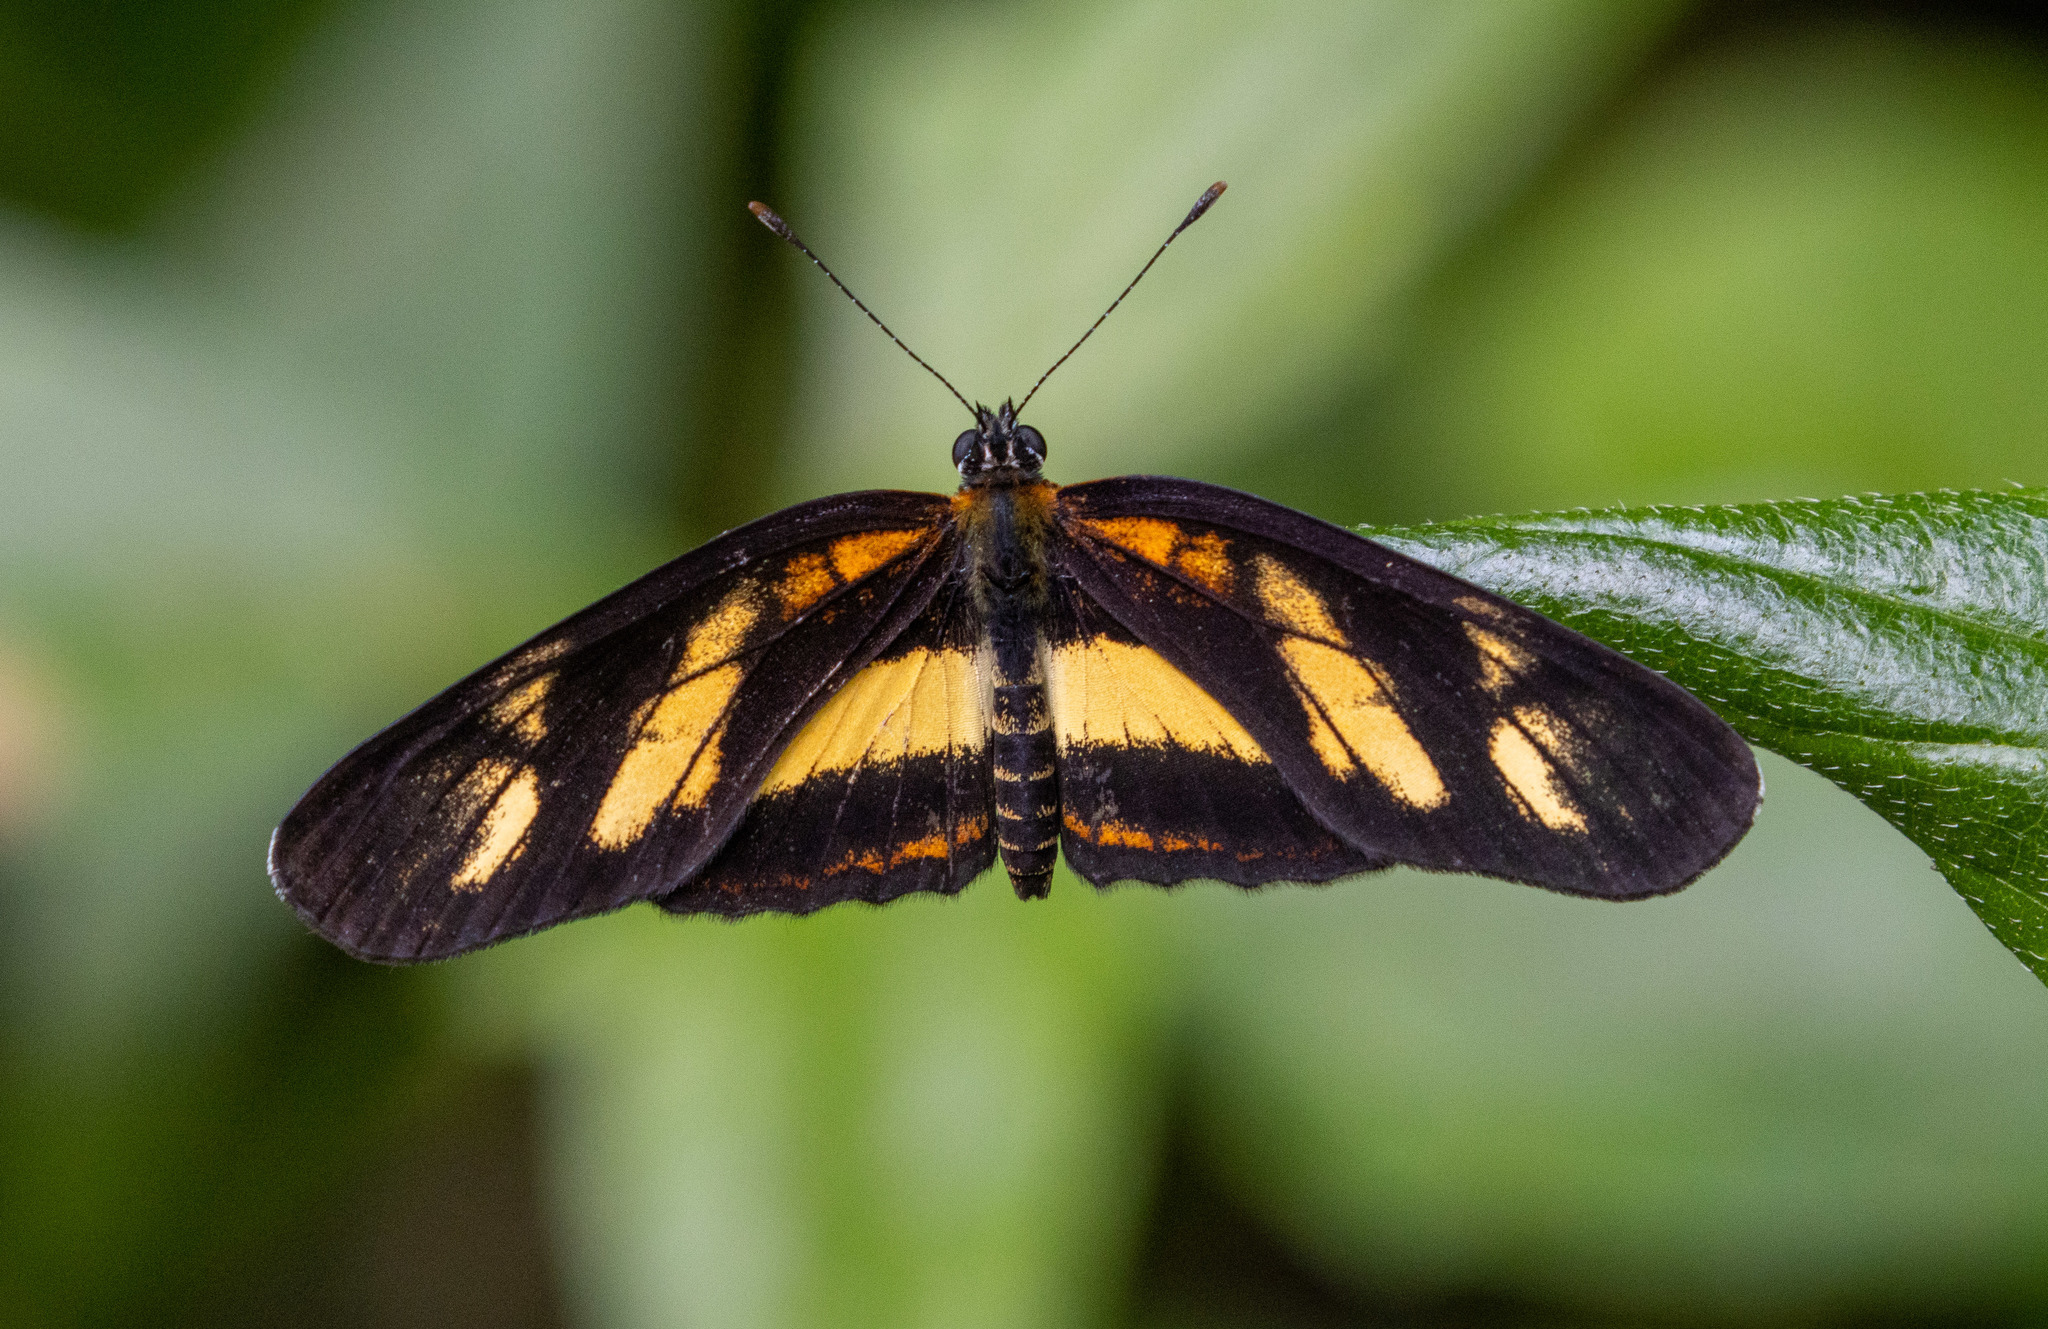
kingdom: Animalia
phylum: Arthropoda
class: Insecta
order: Lepidoptera
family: Nymphalidae
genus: Eresia
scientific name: Eresia perna
